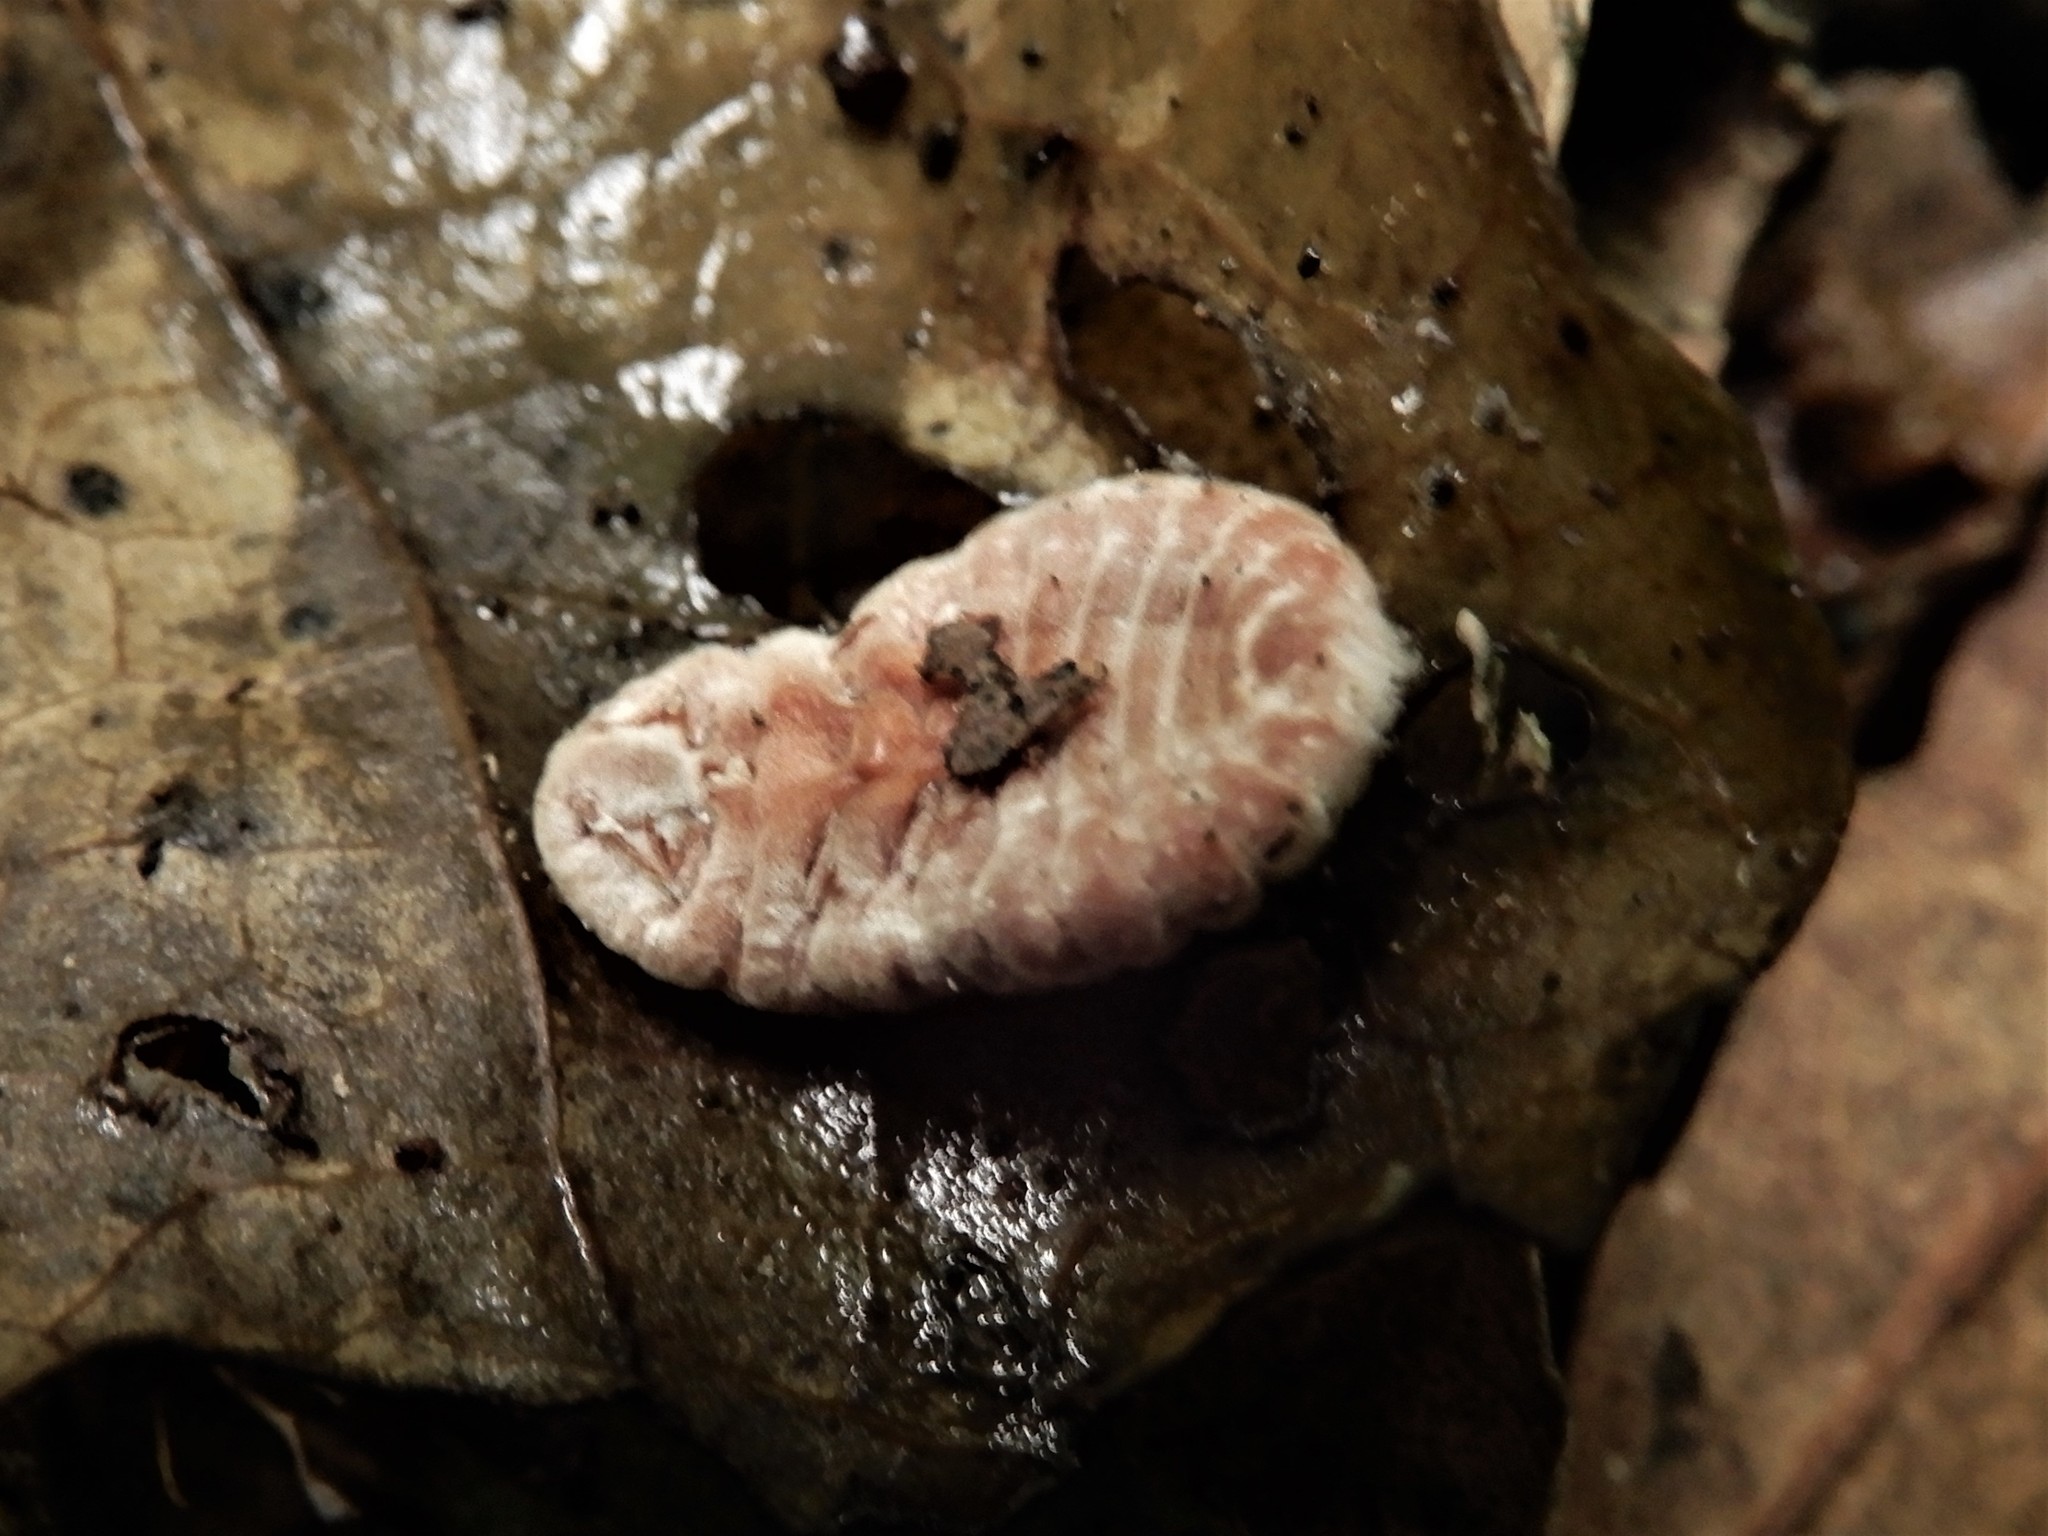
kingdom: Animalia
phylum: Arthropoda
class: Insecta
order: Hemiptera
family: Margarodidae
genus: Coelostomidia
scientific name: Coelostomidia zealandica
